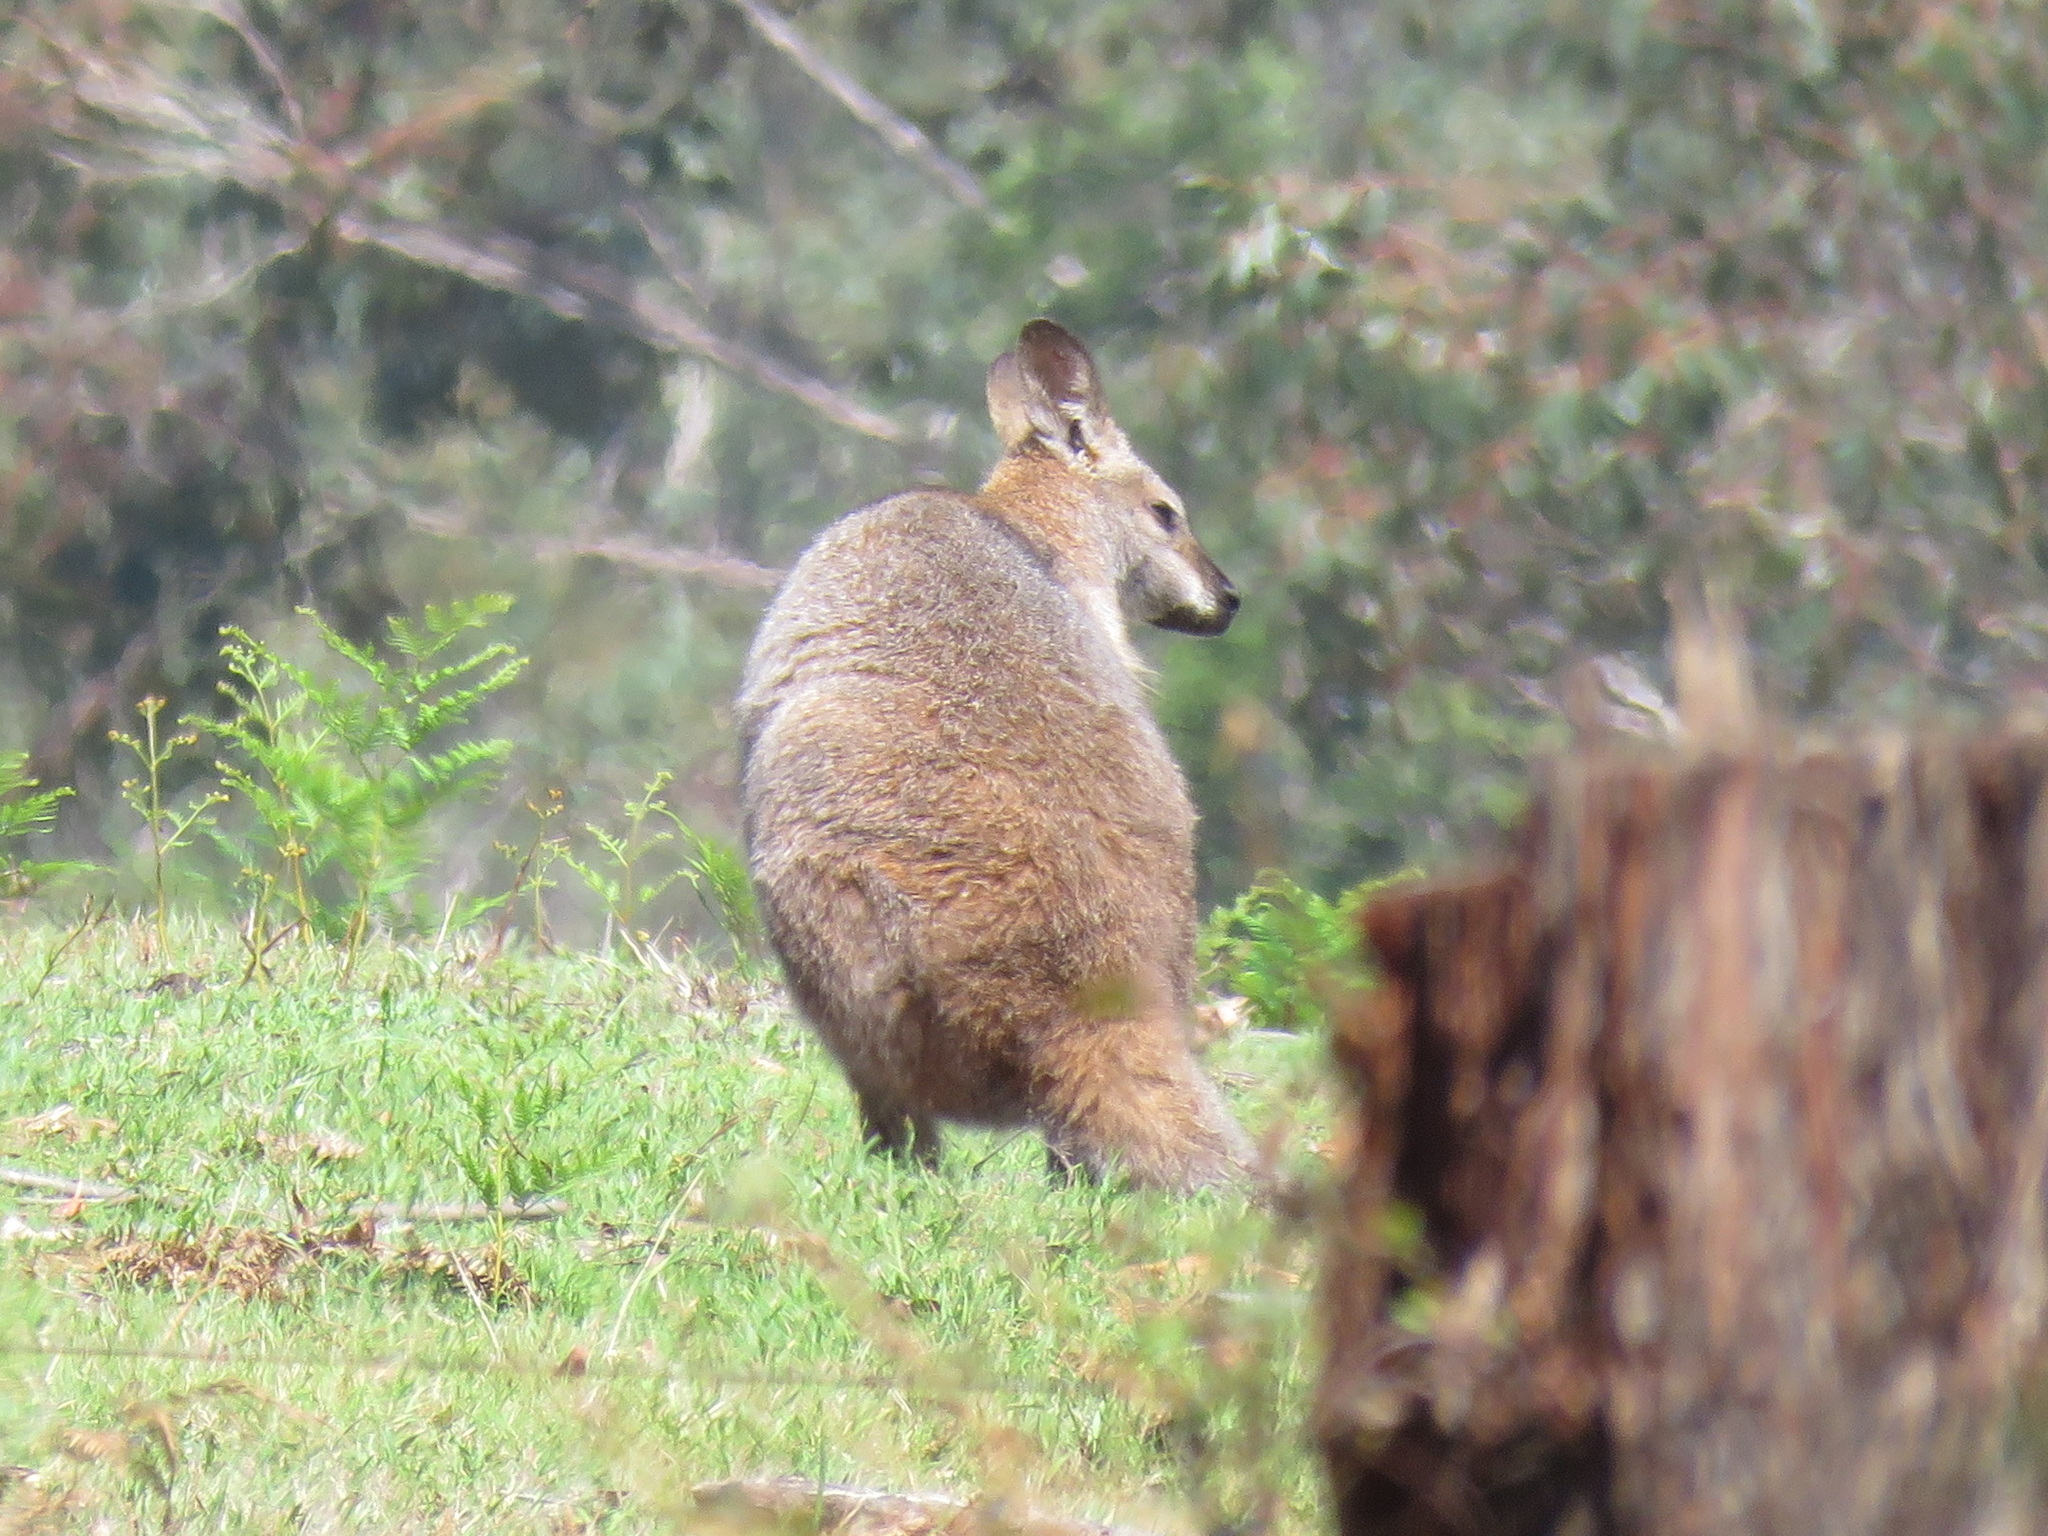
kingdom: Animalia
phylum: Chordata
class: Mammalia
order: Diprotodontia
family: Macropodidae
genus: Notamacropus
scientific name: Notamacropus rufogriseus
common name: Red-necked wallaby
